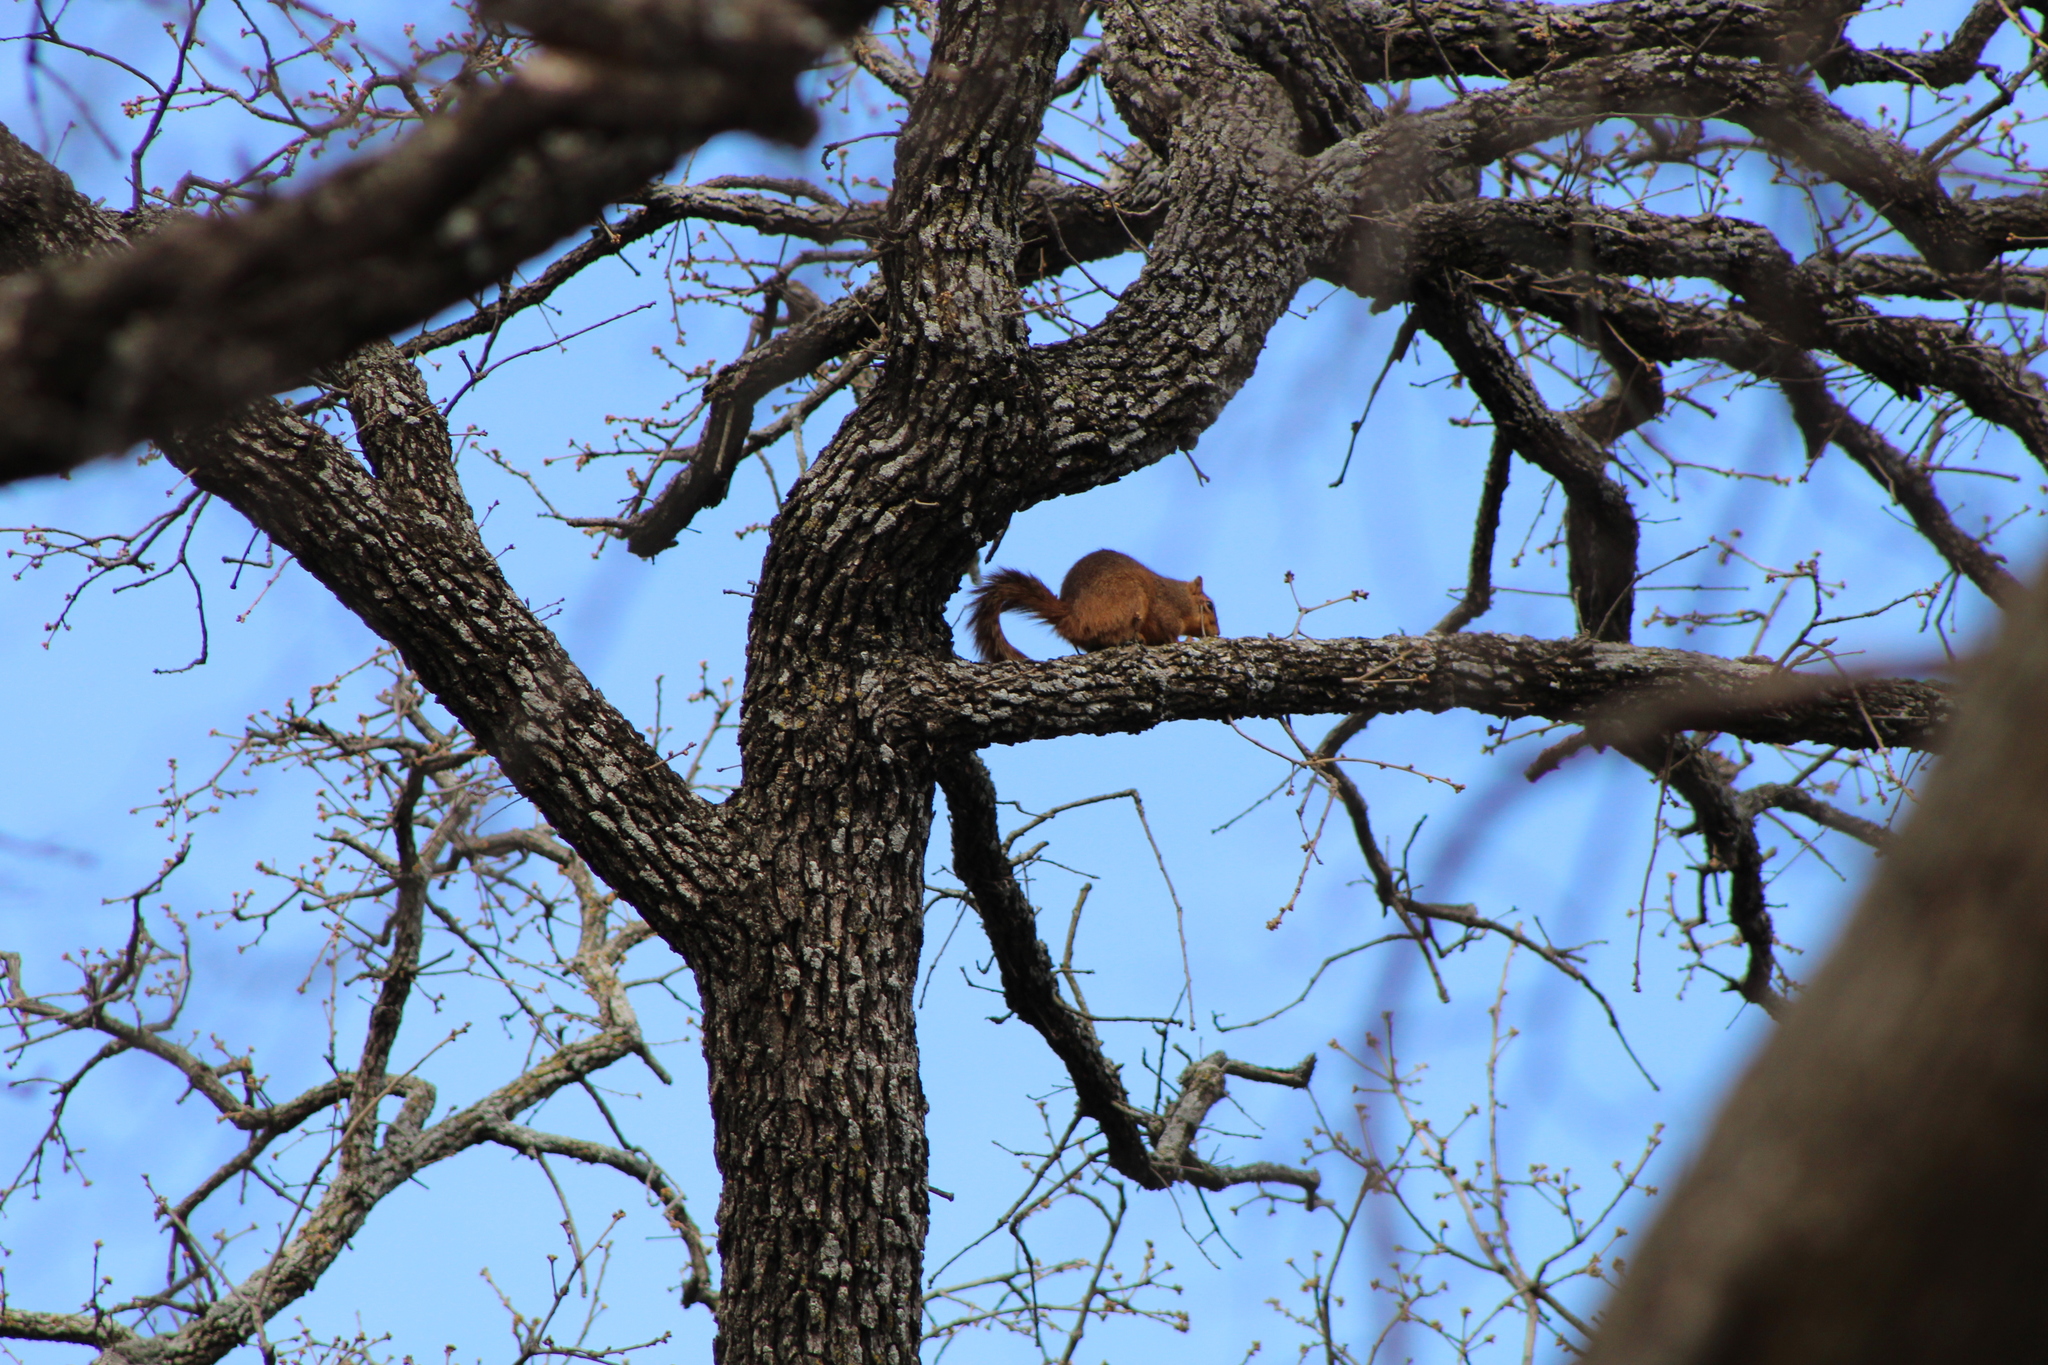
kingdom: Animalia
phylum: Chordata
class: Mammalia
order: Rodentia
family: Sciuridae
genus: Sciurus
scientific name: Sciurus niger
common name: Fox squirrel
